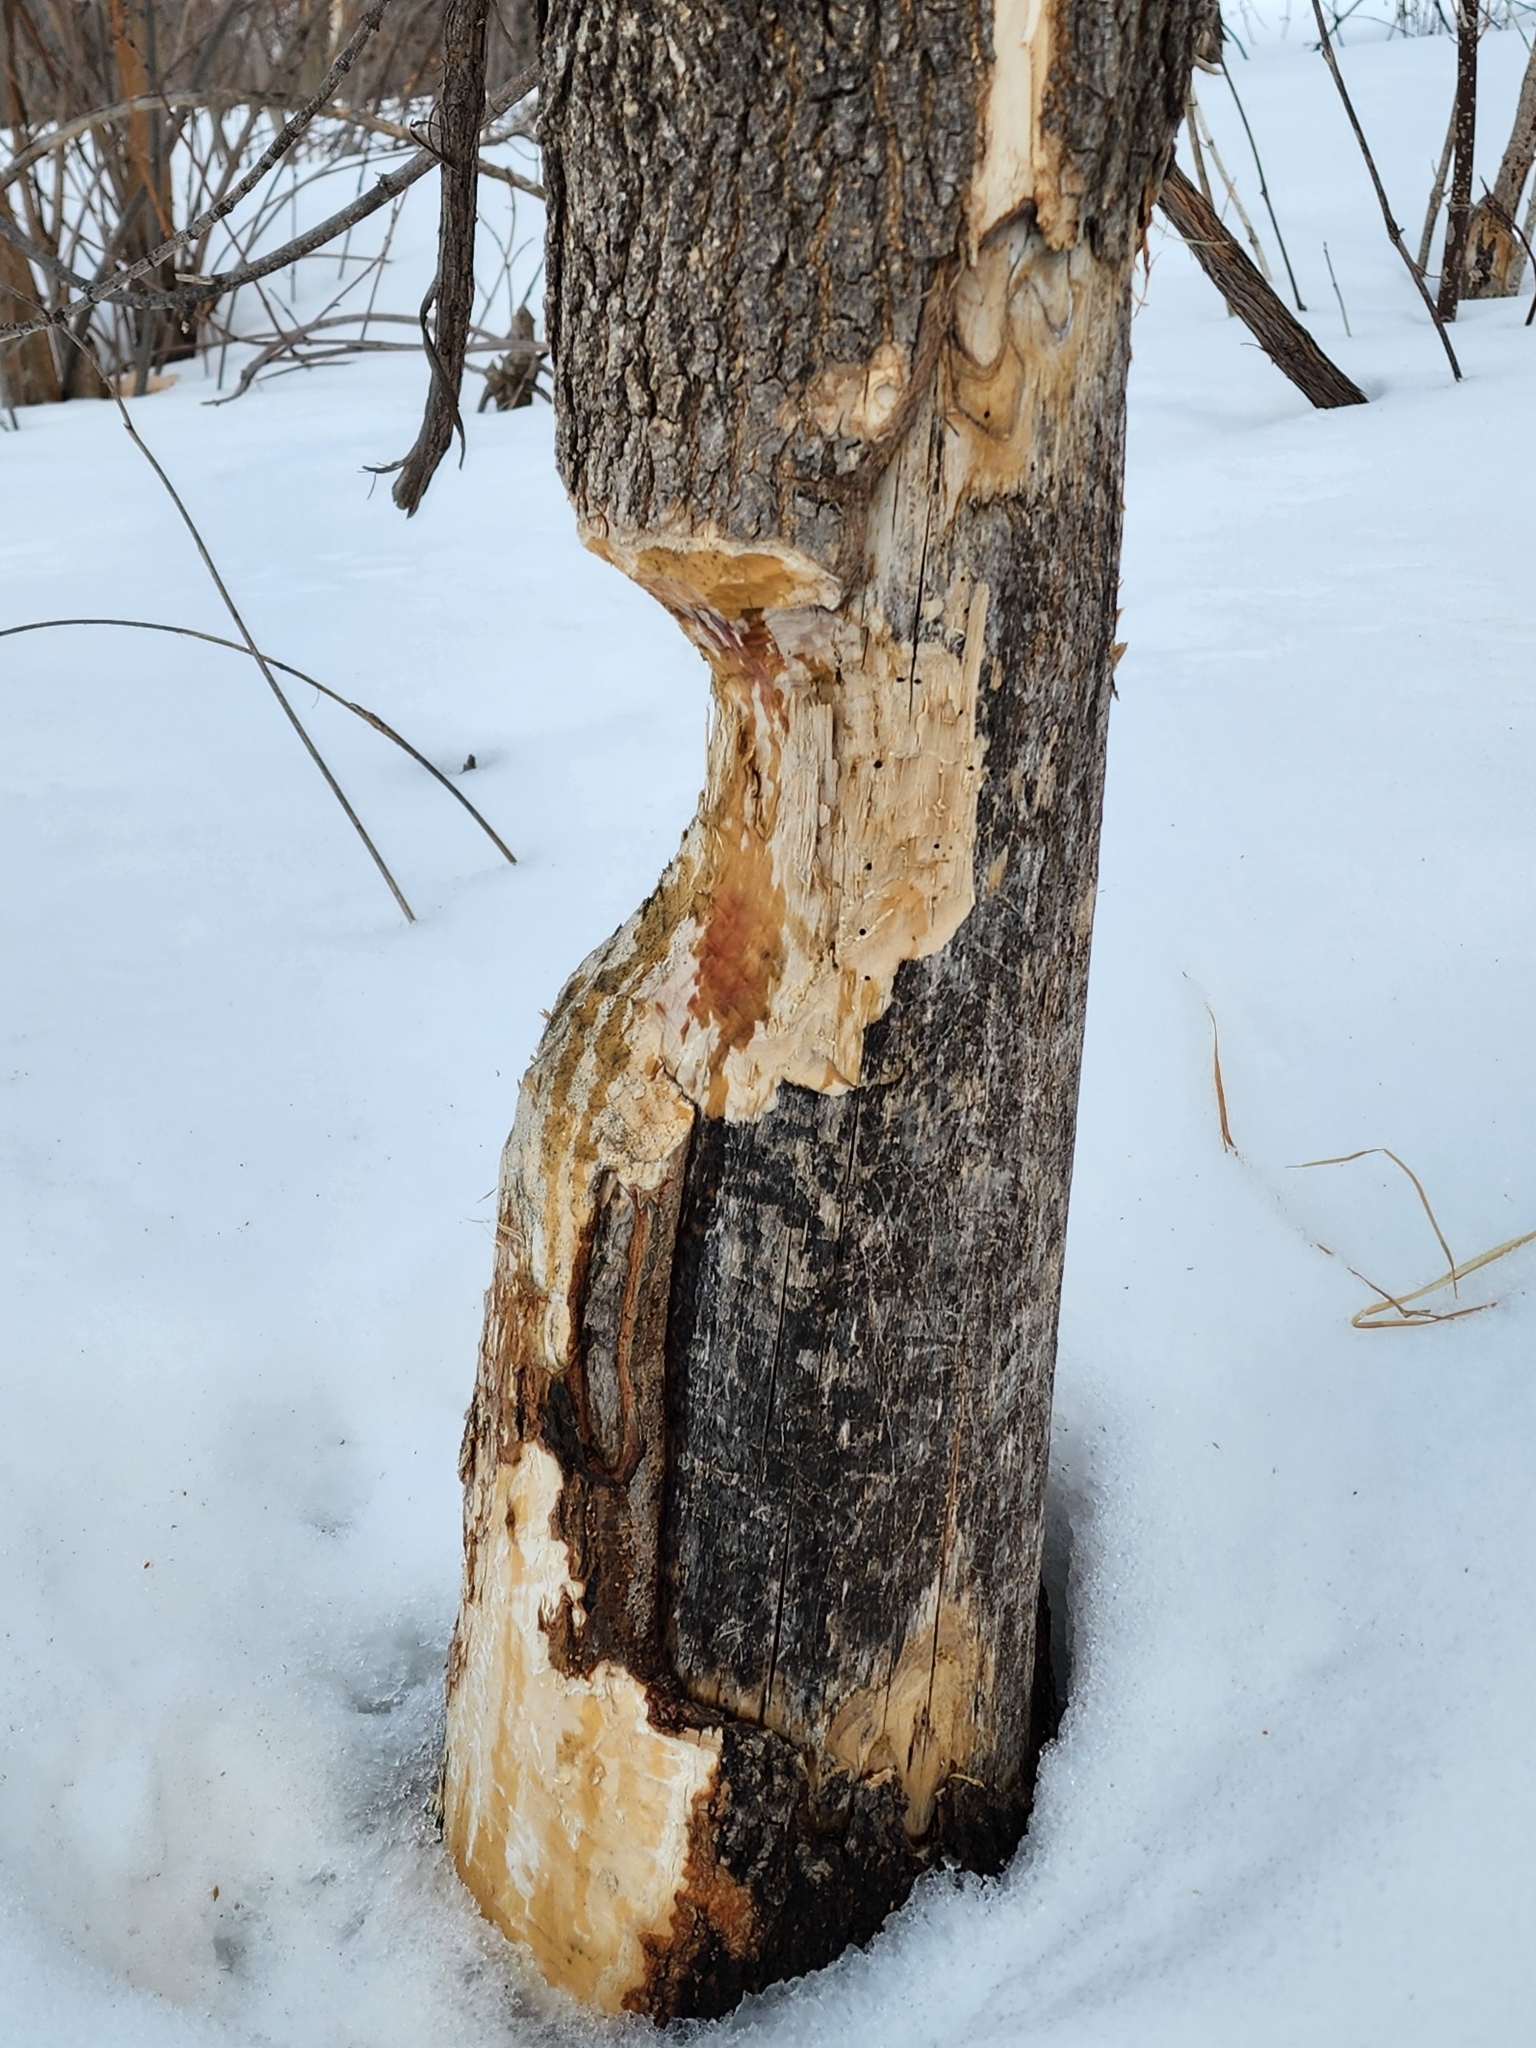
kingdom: Animalia
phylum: Chordata
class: Mammalia
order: Rodentia
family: Castoridae
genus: Castor
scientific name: Castor canadensis
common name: American beaver
